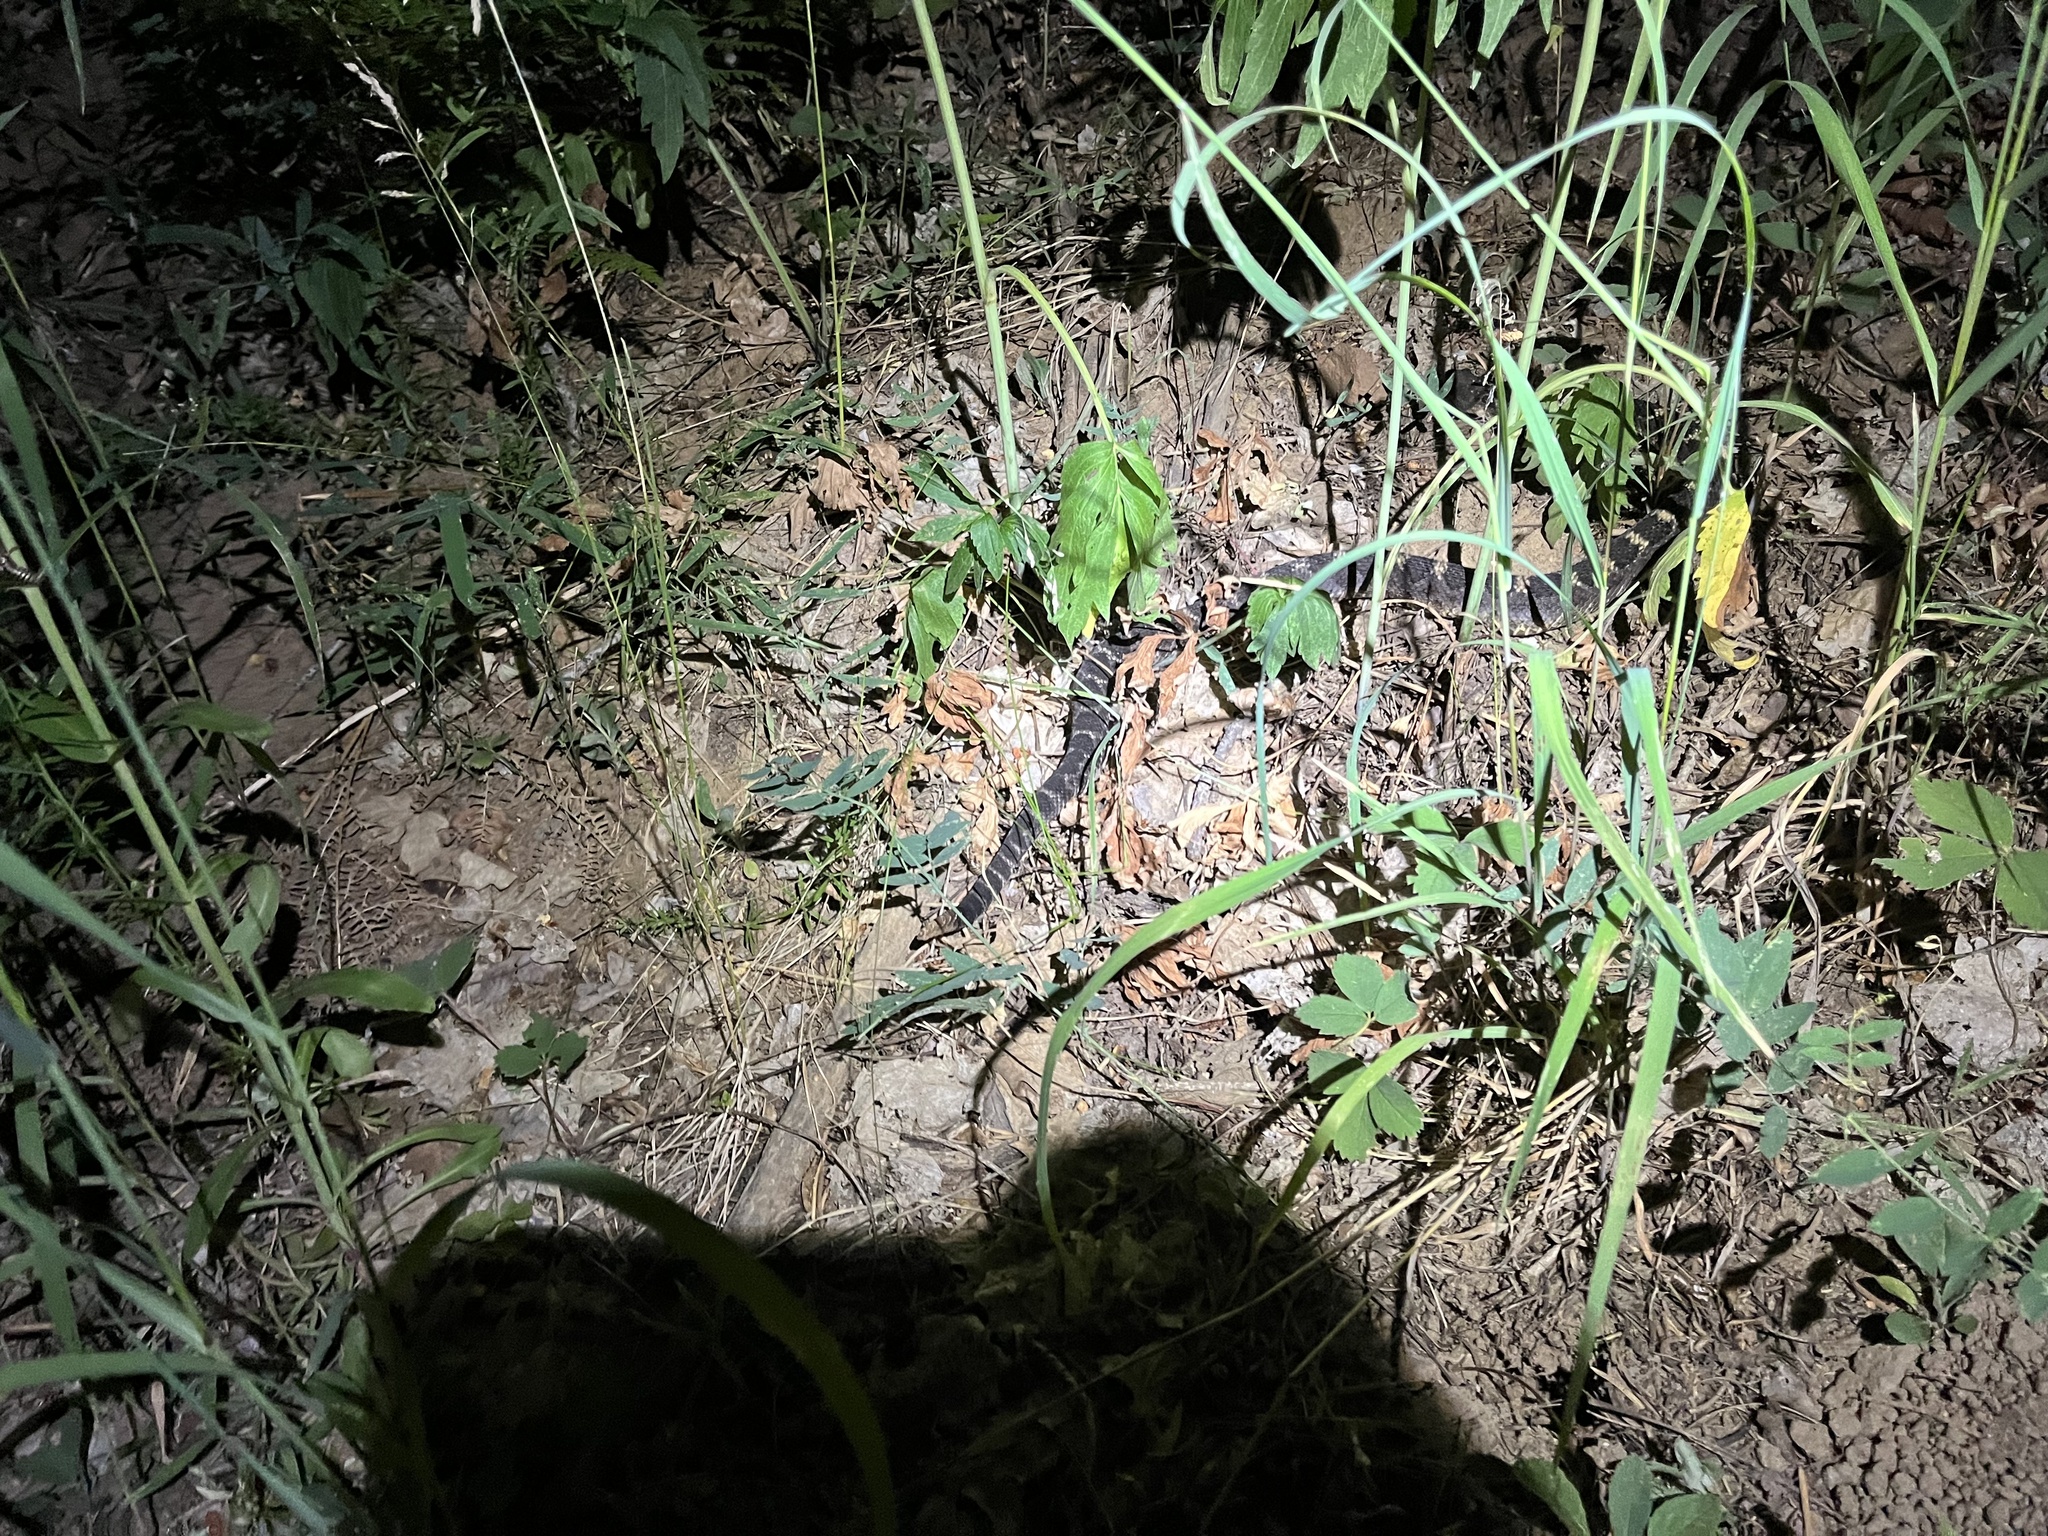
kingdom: Animalia
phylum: Chordata
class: Squamata
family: Viperidae
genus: Crotalus
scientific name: Crotalus cerberus
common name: Arizona black rattlesnake
